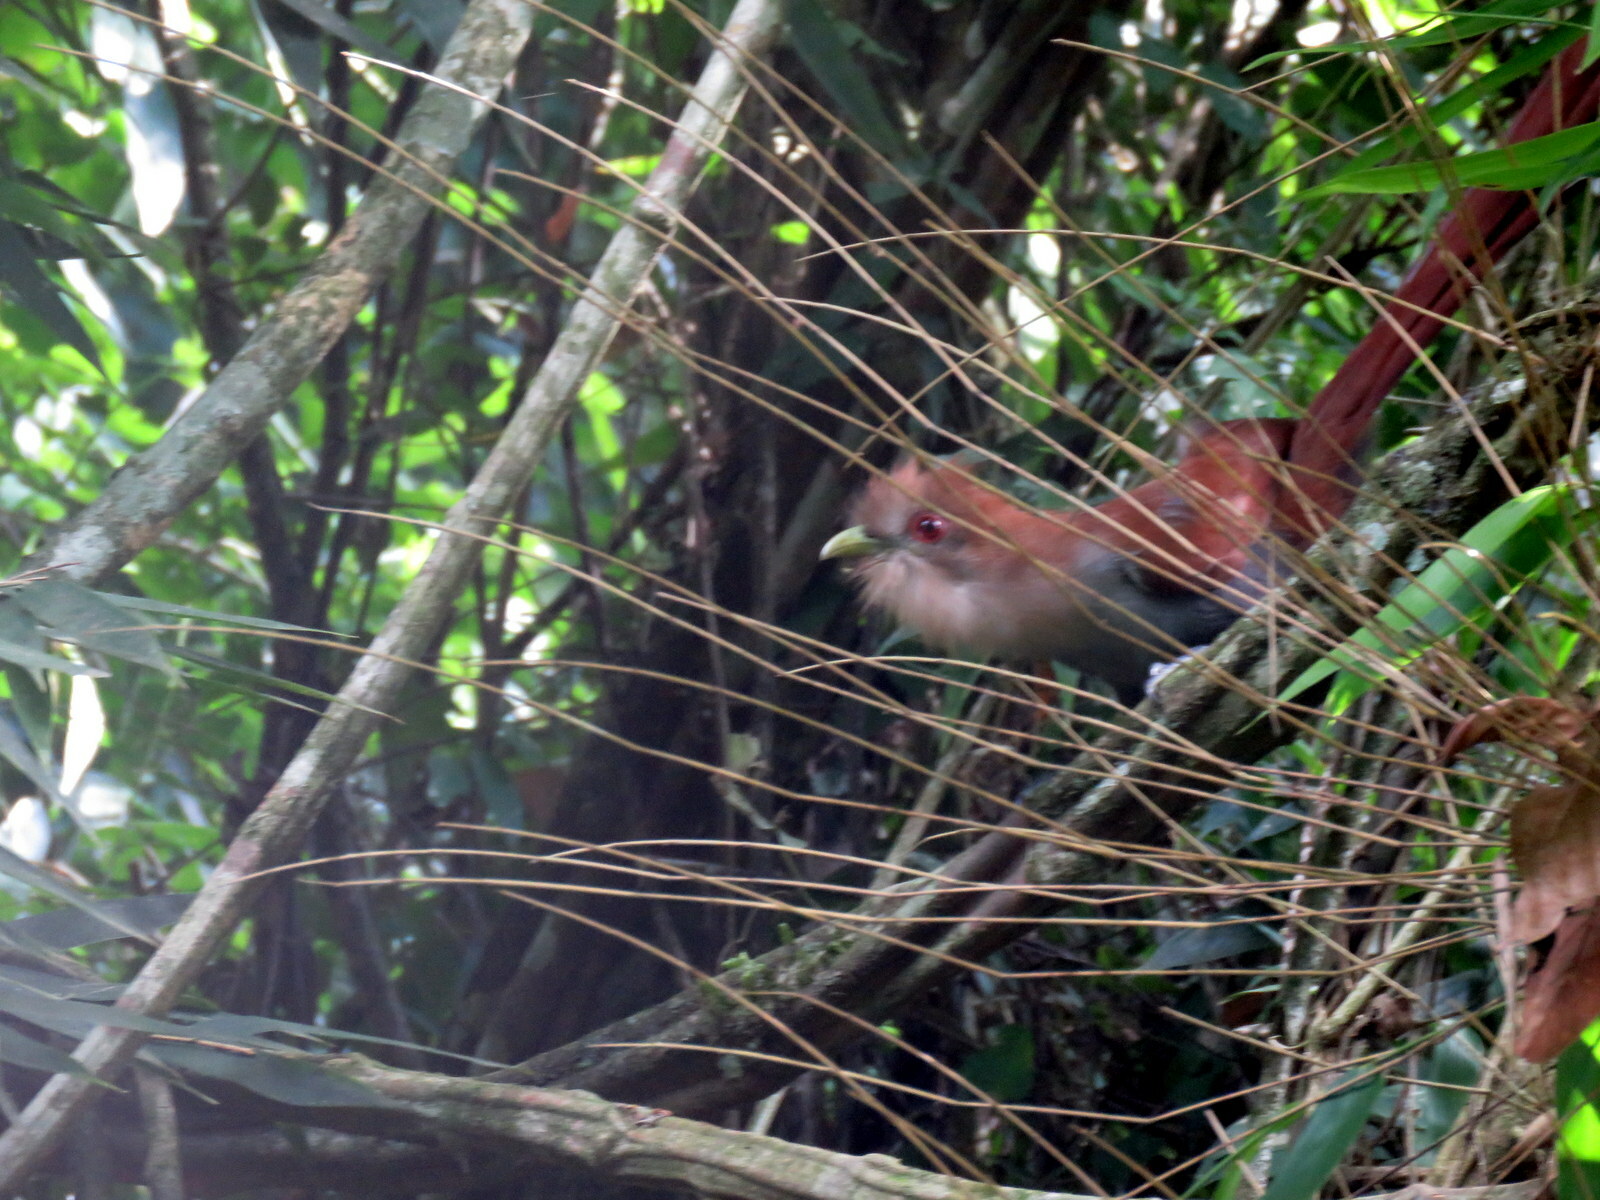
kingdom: Animalia
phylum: Chordata
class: Aves
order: Cuculiformes
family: Cuculidae
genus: Piaya
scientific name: Piaya cayana
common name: Squirrel cuckoo
